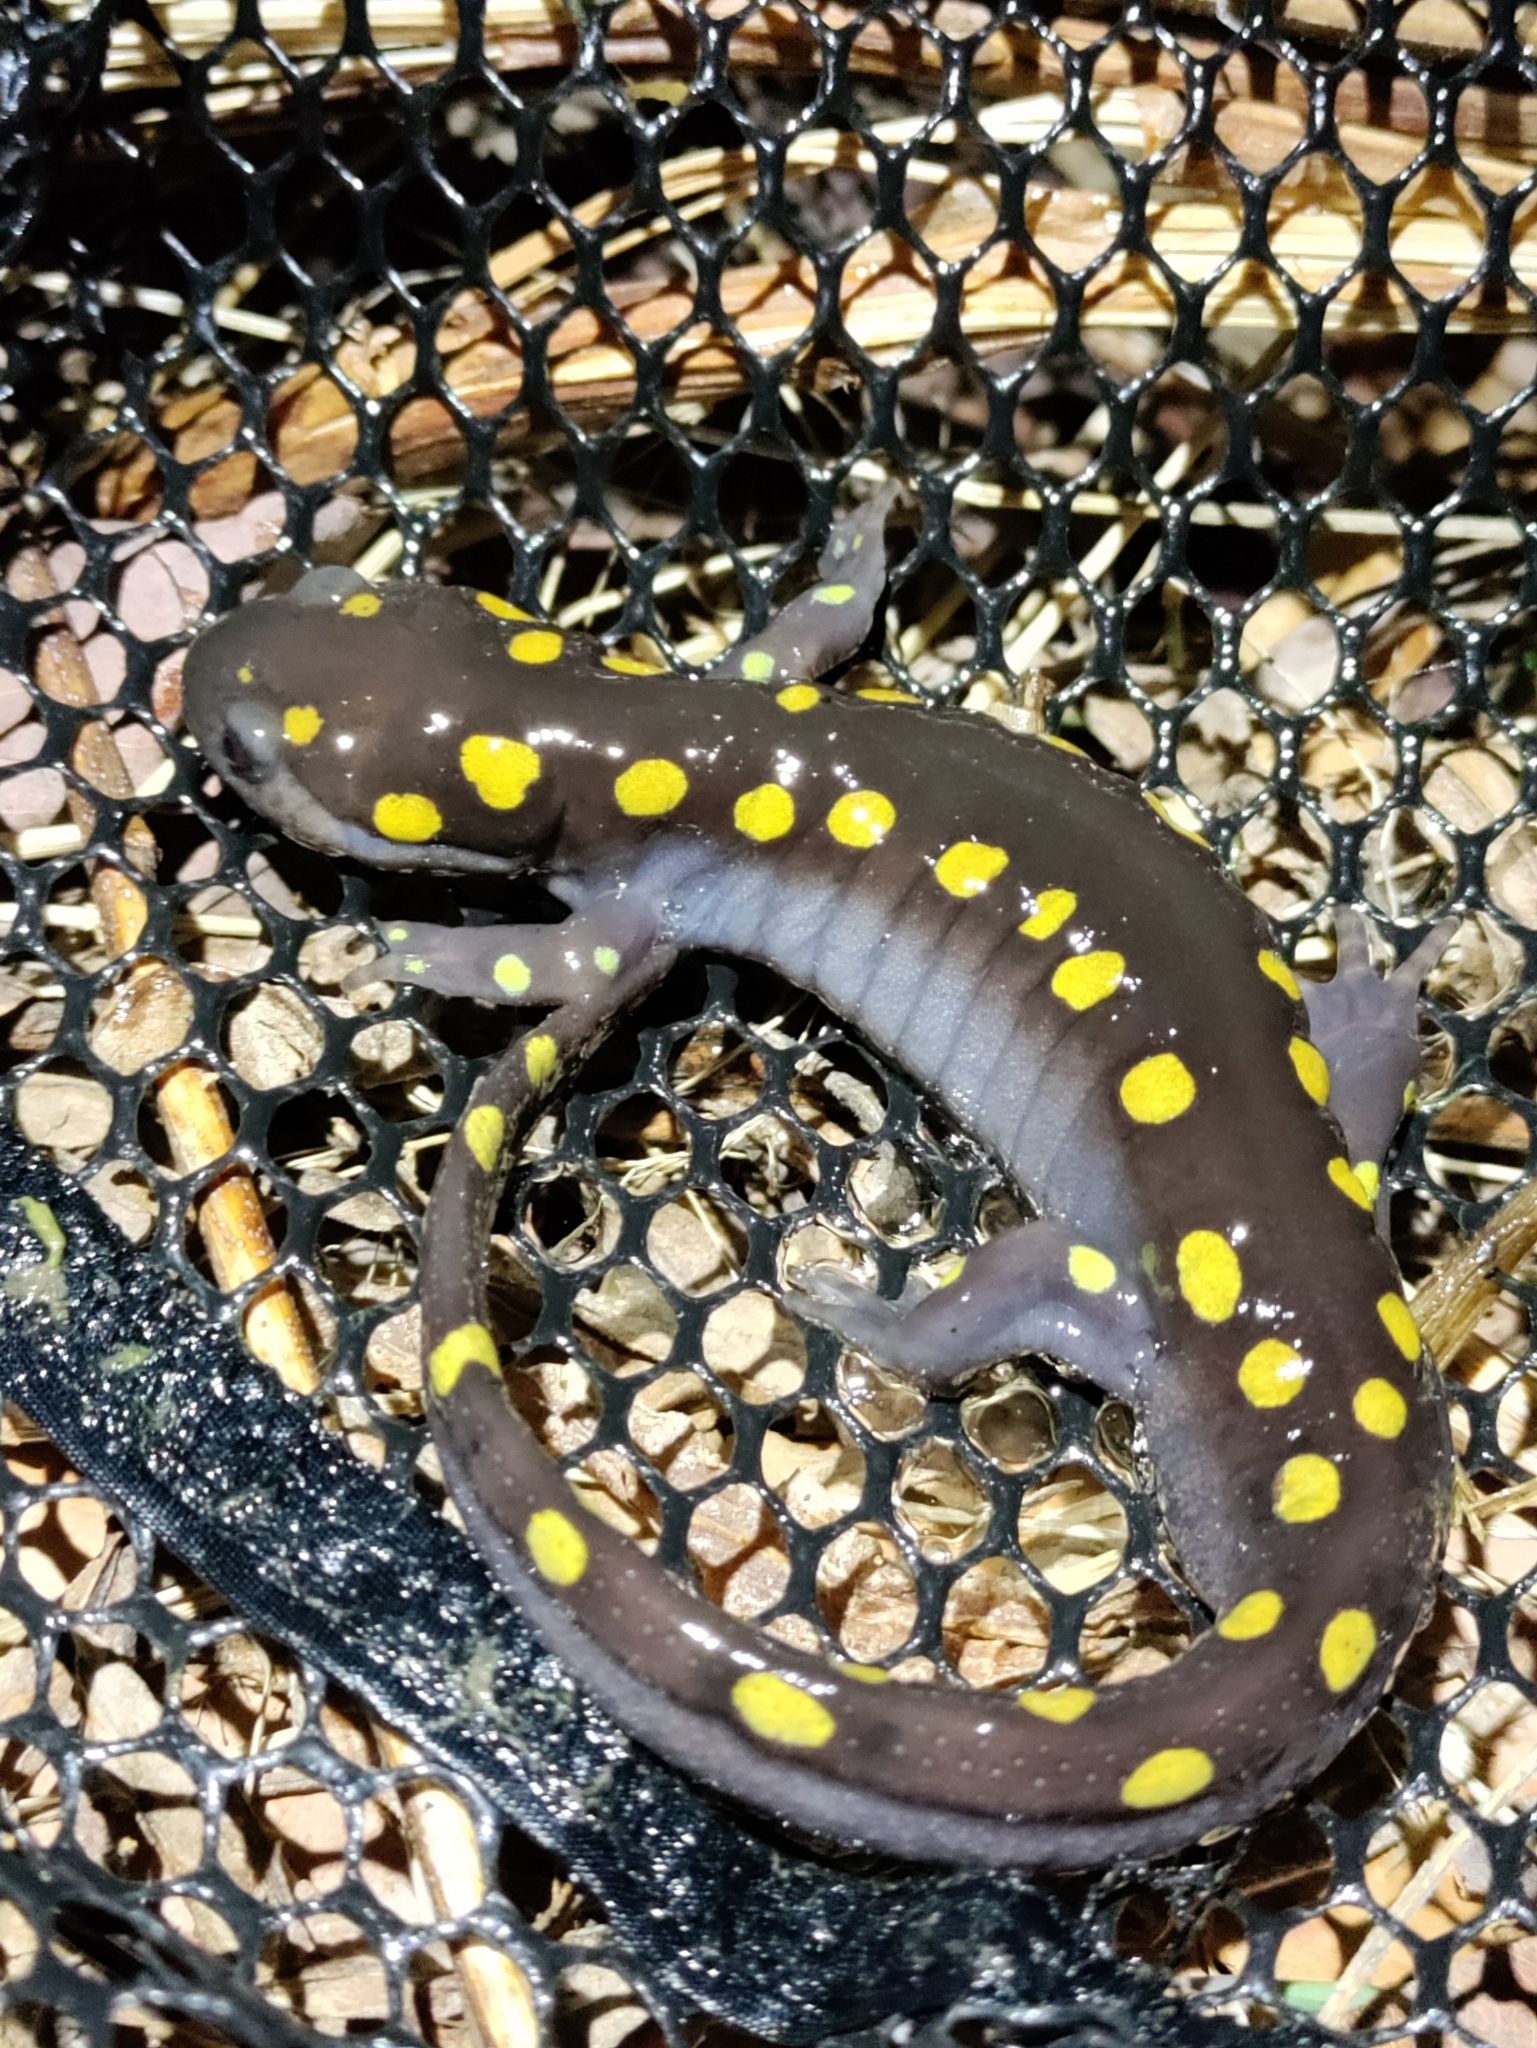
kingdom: Animalia
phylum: Chordata
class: Amphibia
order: Caudata
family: Ambystomatidae
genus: Ambystoma
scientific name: Ambystoma maculatum
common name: Spotted salamander
